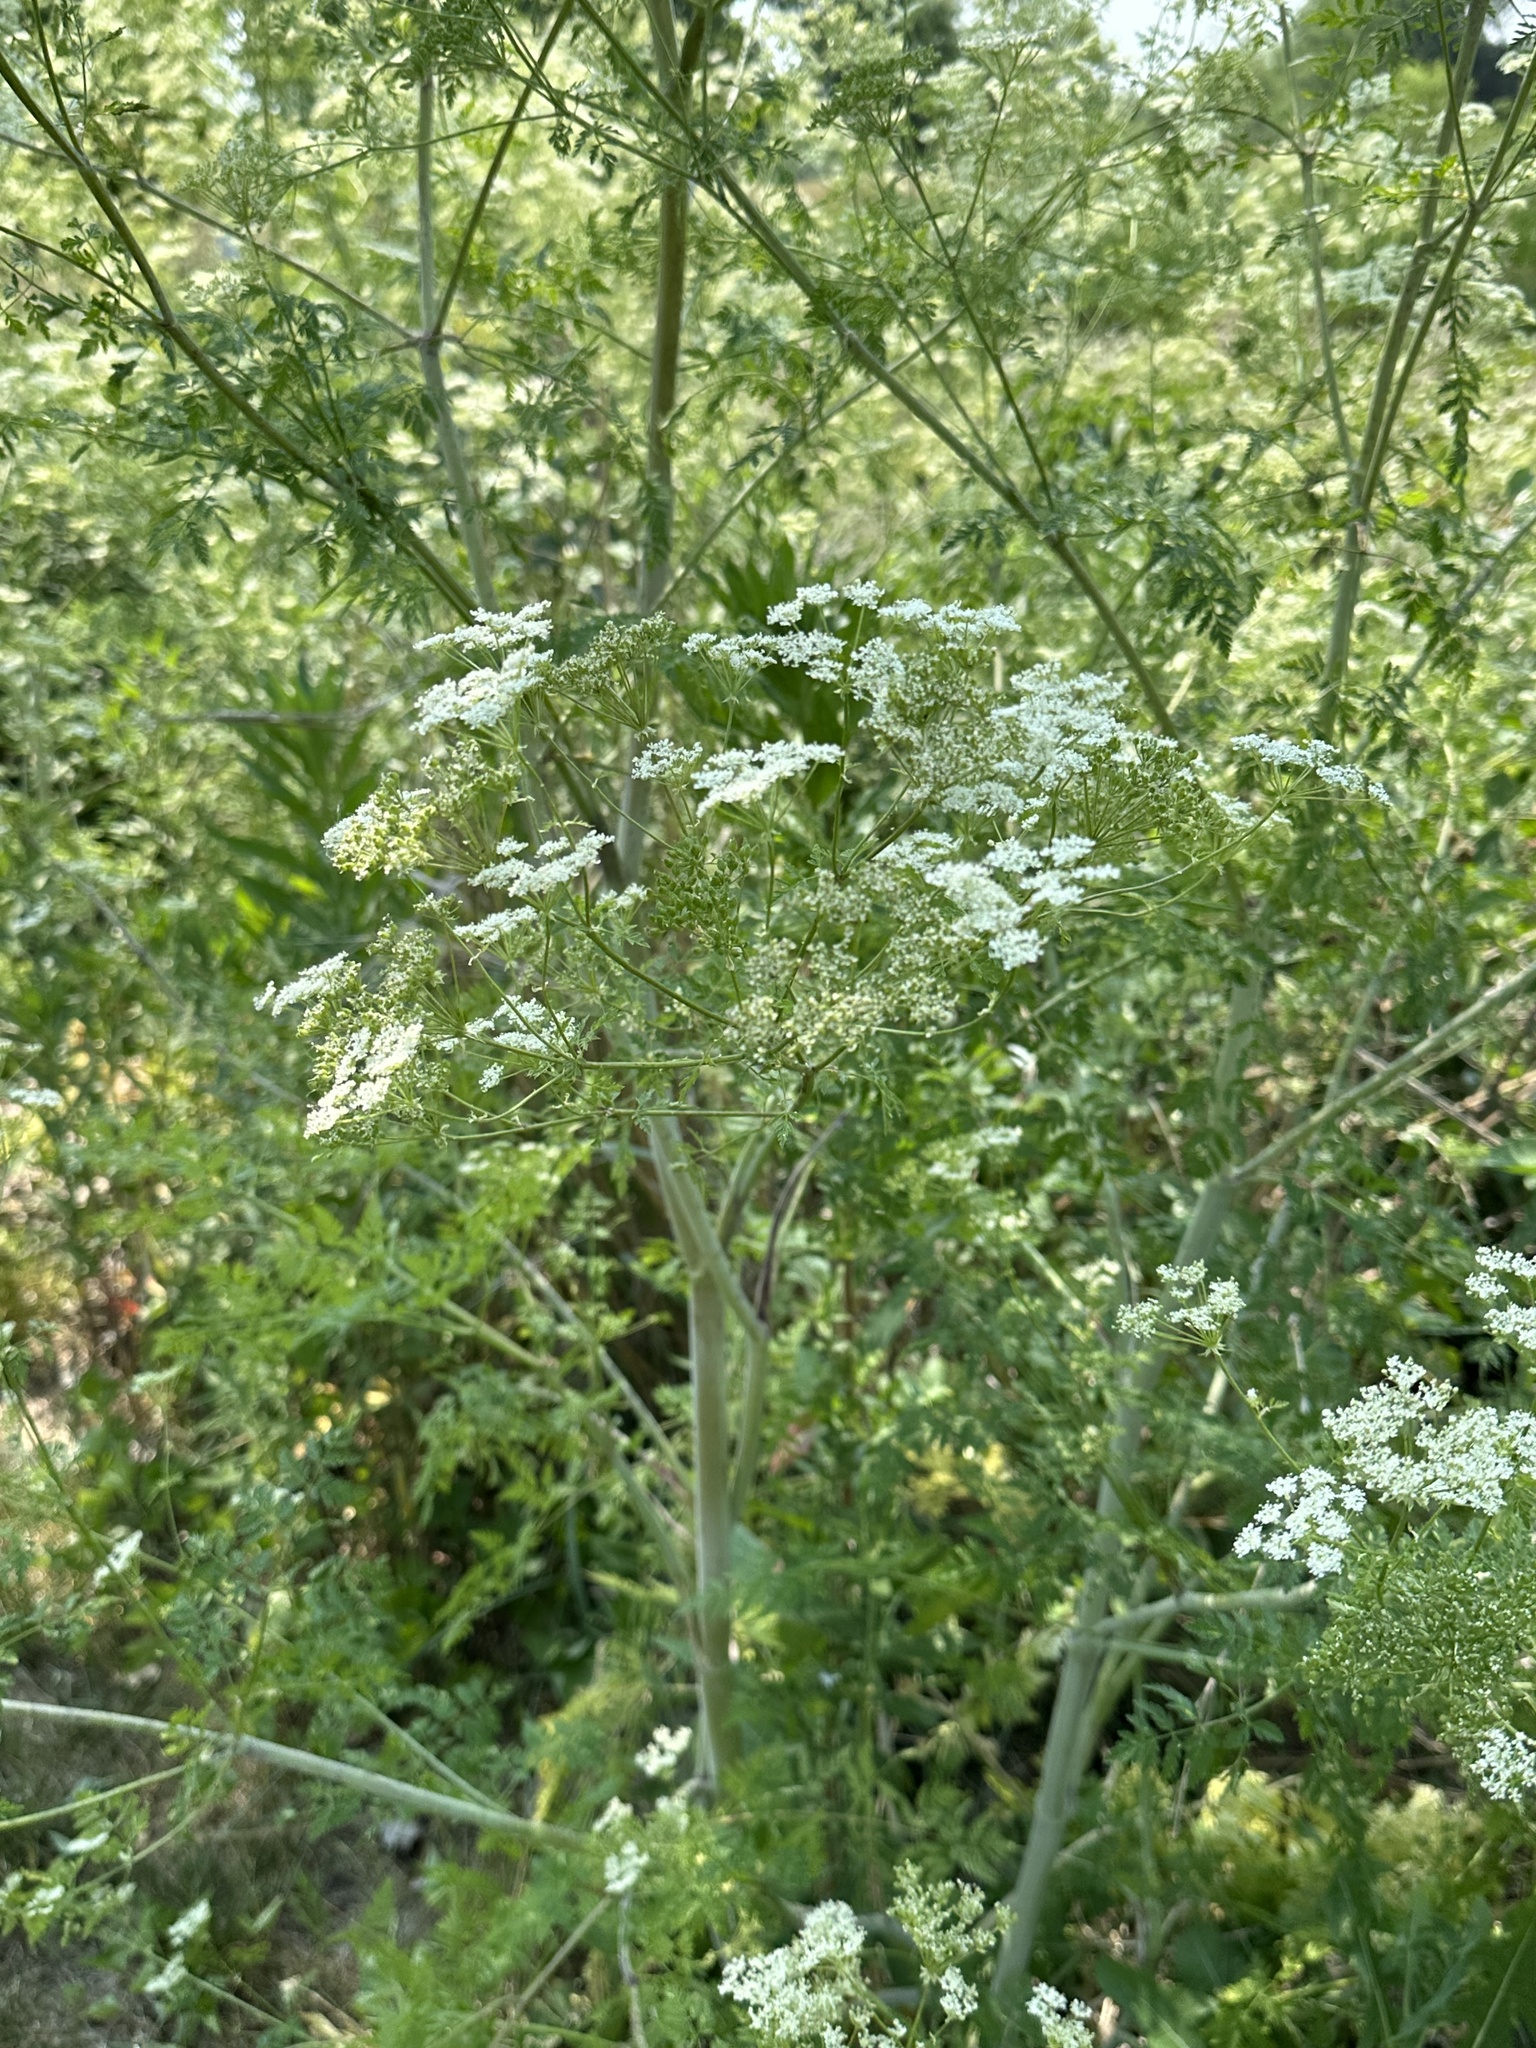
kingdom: Plantae
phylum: Tracheophyta
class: Magnoliopsida
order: Apiales
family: Apiaceae
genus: Conium
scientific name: Conium maculatum
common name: Hemlock
